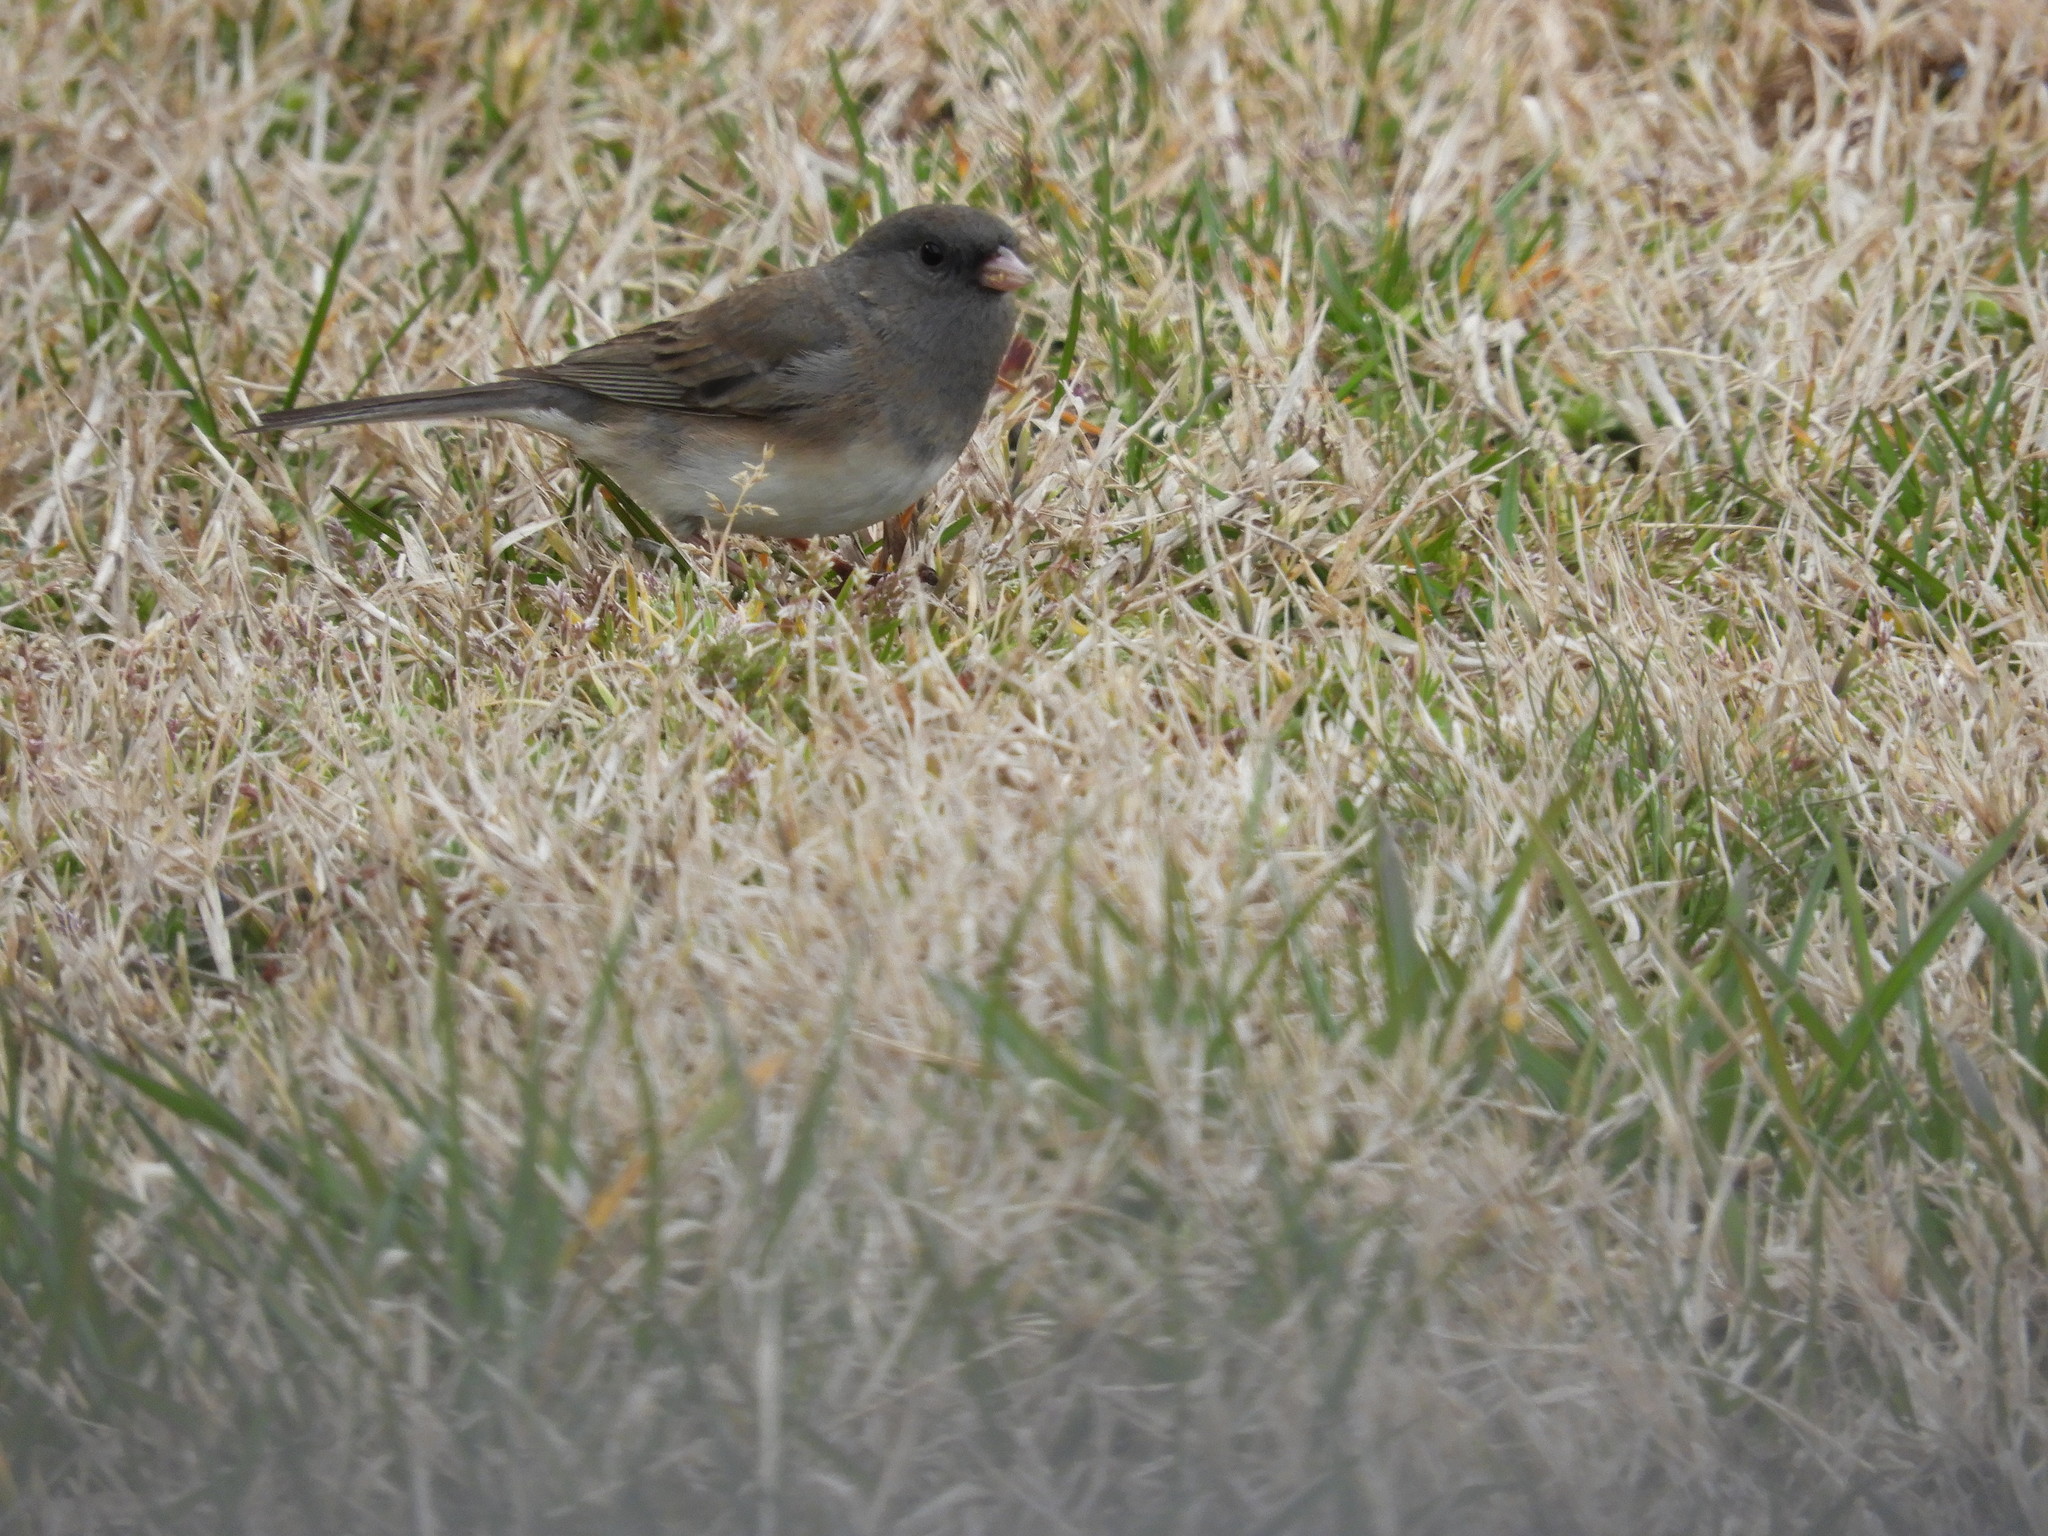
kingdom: Animalia
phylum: Chordata
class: Aves
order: Passeriformes
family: Passerellidae
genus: Junco
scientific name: Junco hyemalis
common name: Dark-eyed junco
